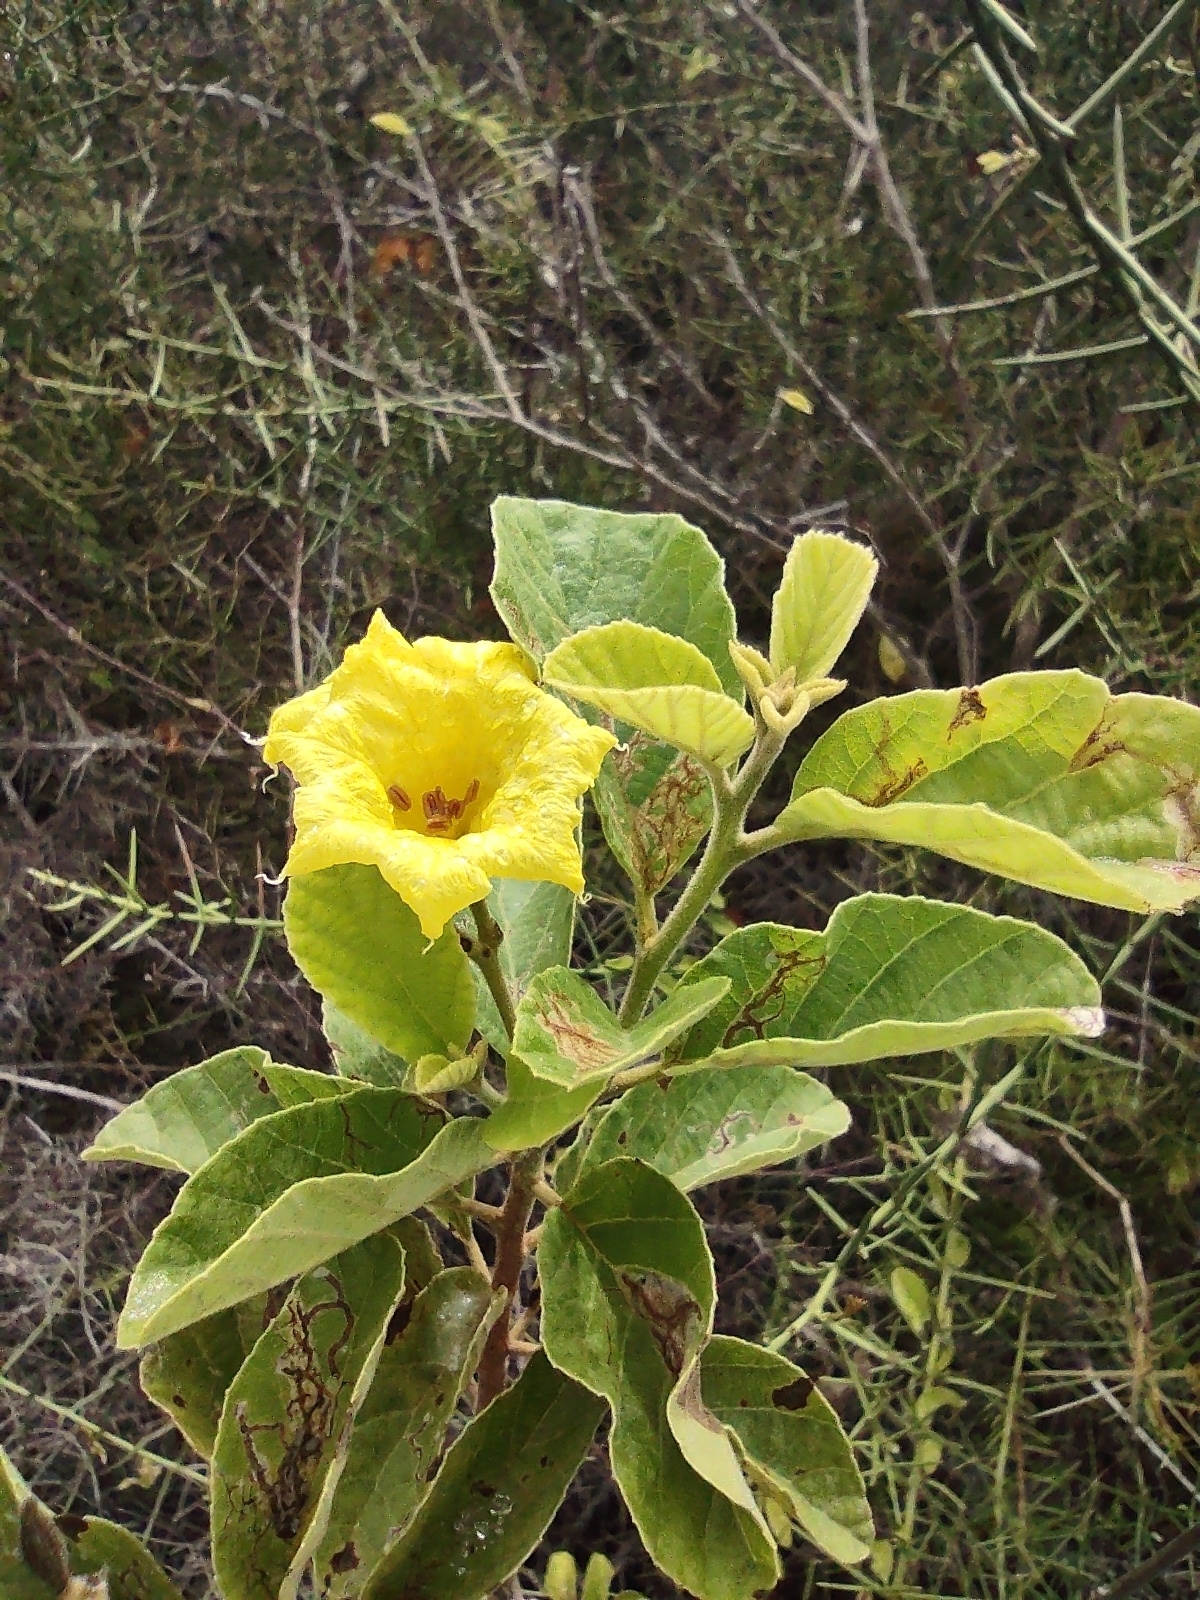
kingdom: Plantae
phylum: Tracheophyta
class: Magnoliopsida
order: Boraginales
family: Cordiaceae
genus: Cordia
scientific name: Cordia lutea
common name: Yellow geiger
